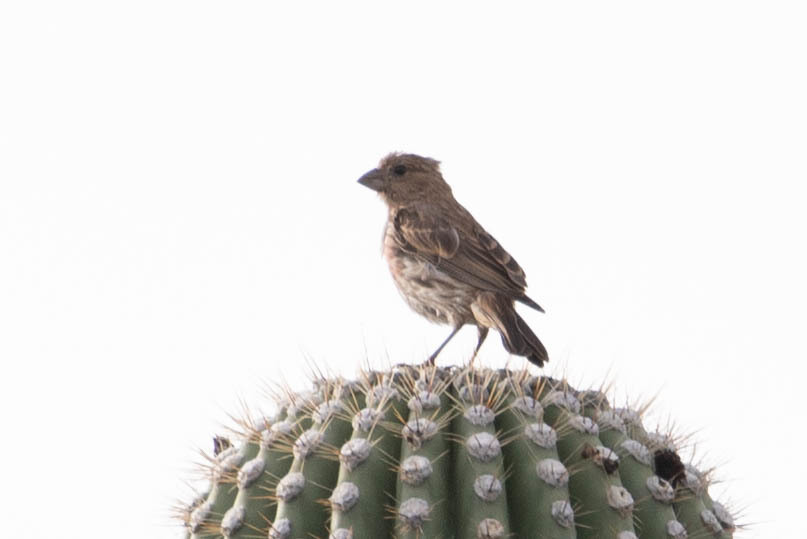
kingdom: Animalia
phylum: Chordata
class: Aves
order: Passeriformes
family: Fringillidae
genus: Haemorhous
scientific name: Haemorhous mexicanus
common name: House finch
